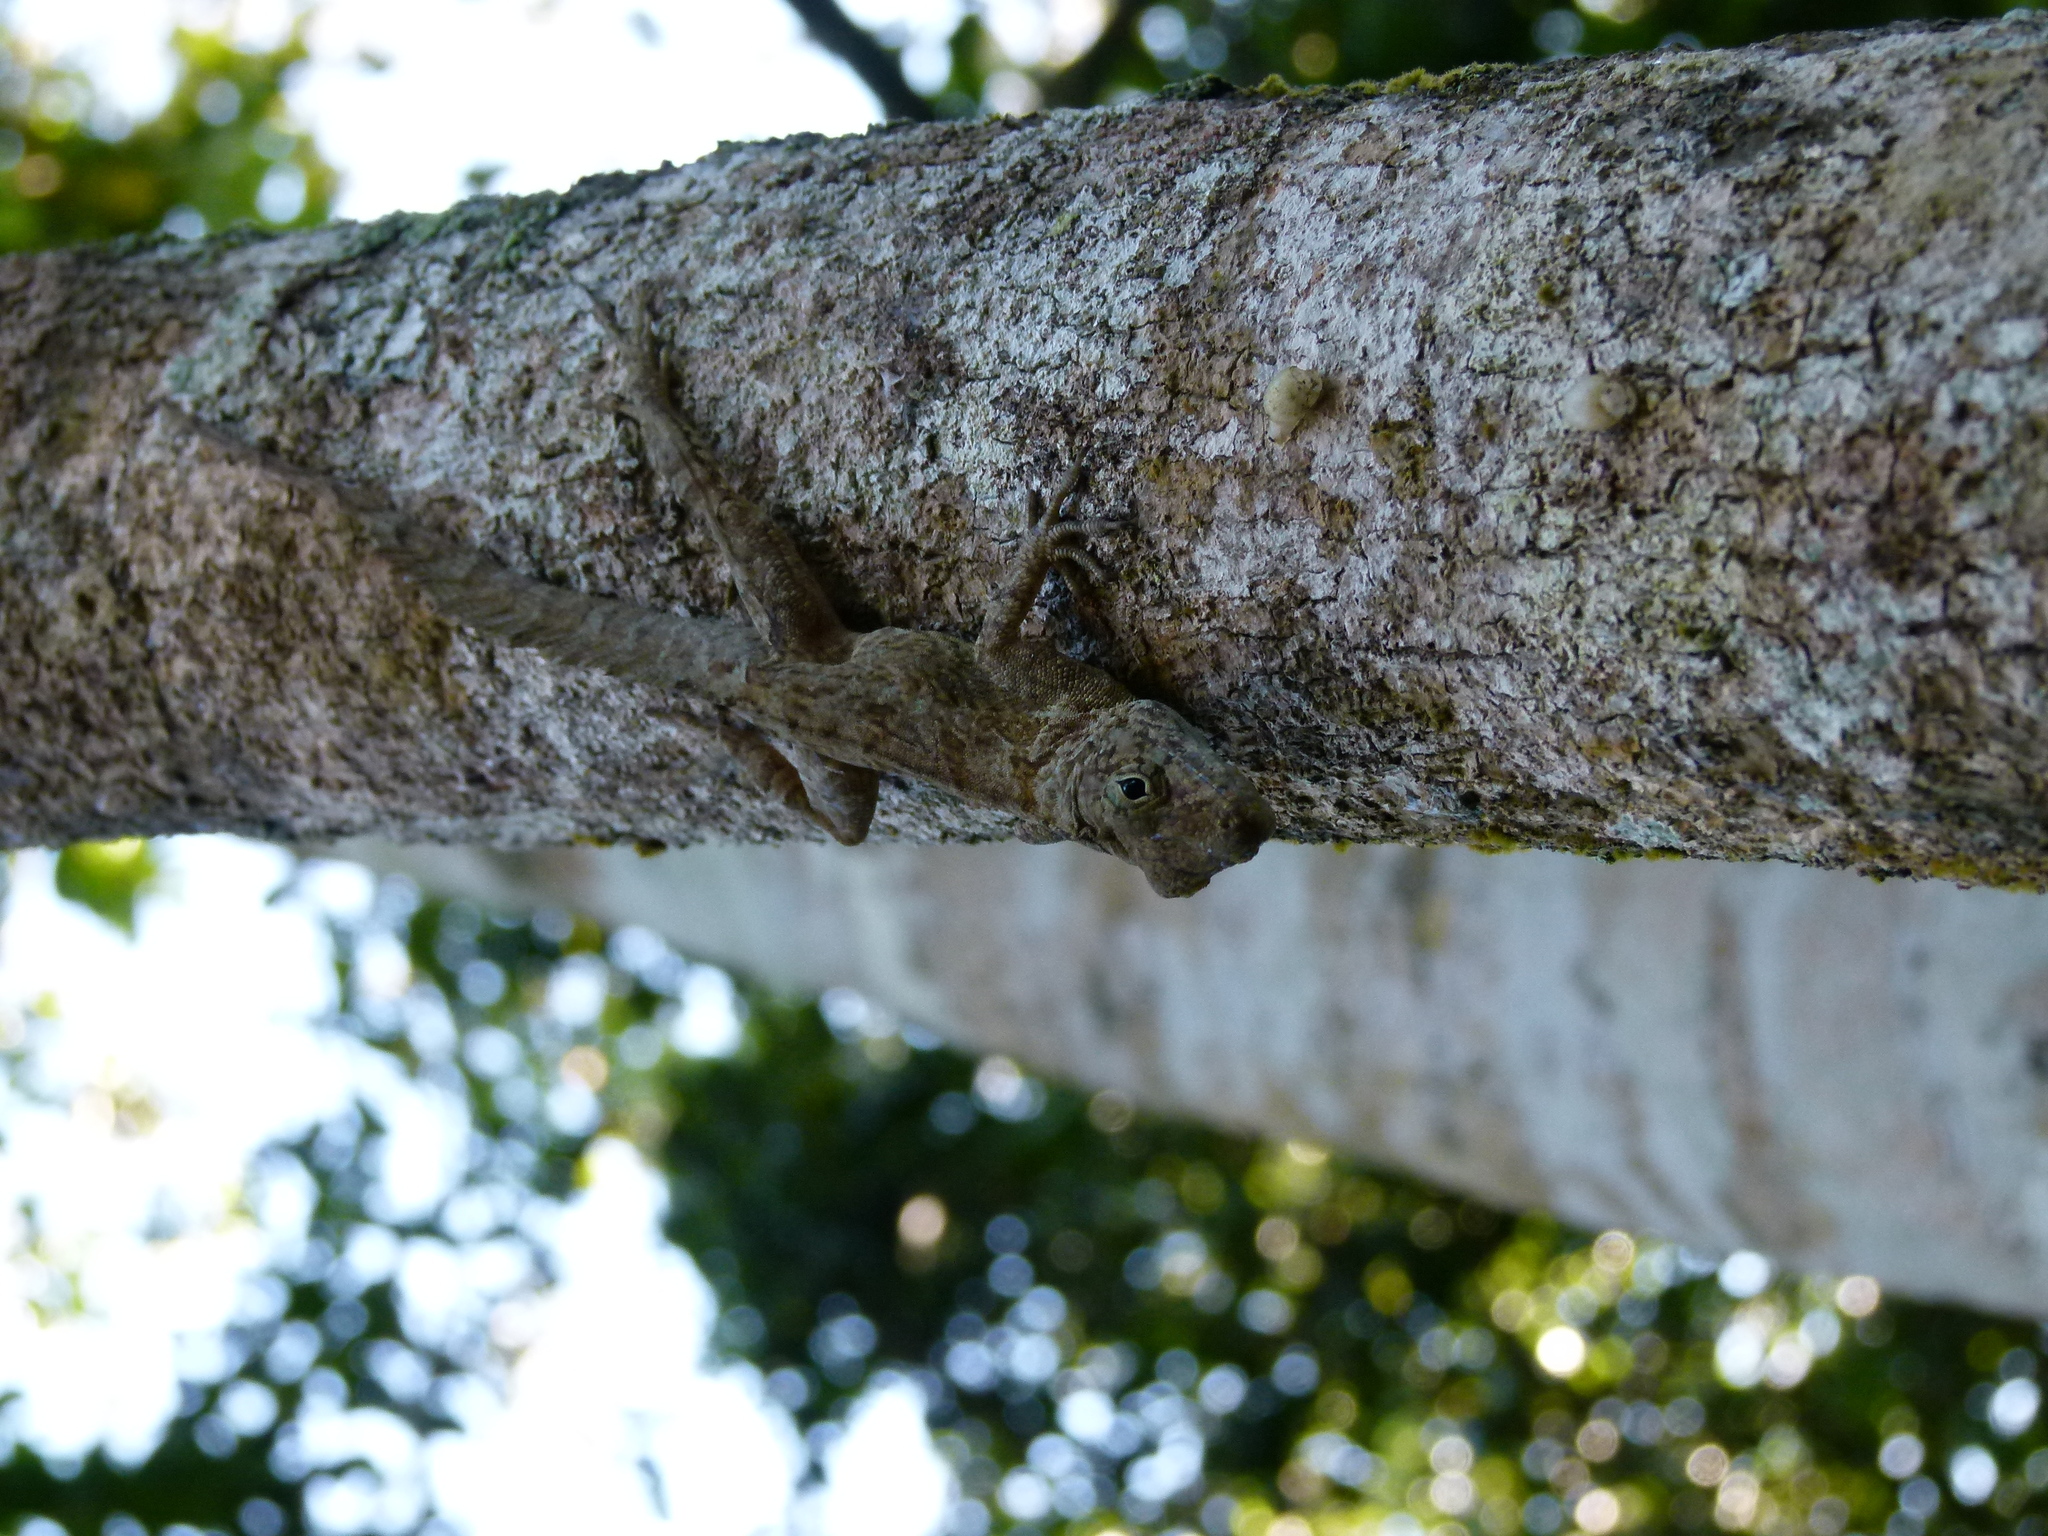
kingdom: Animalia
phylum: Chordata
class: Squamata
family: Dactyloidae
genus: Anolis
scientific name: Anolis cristatellus
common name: Crested anole
